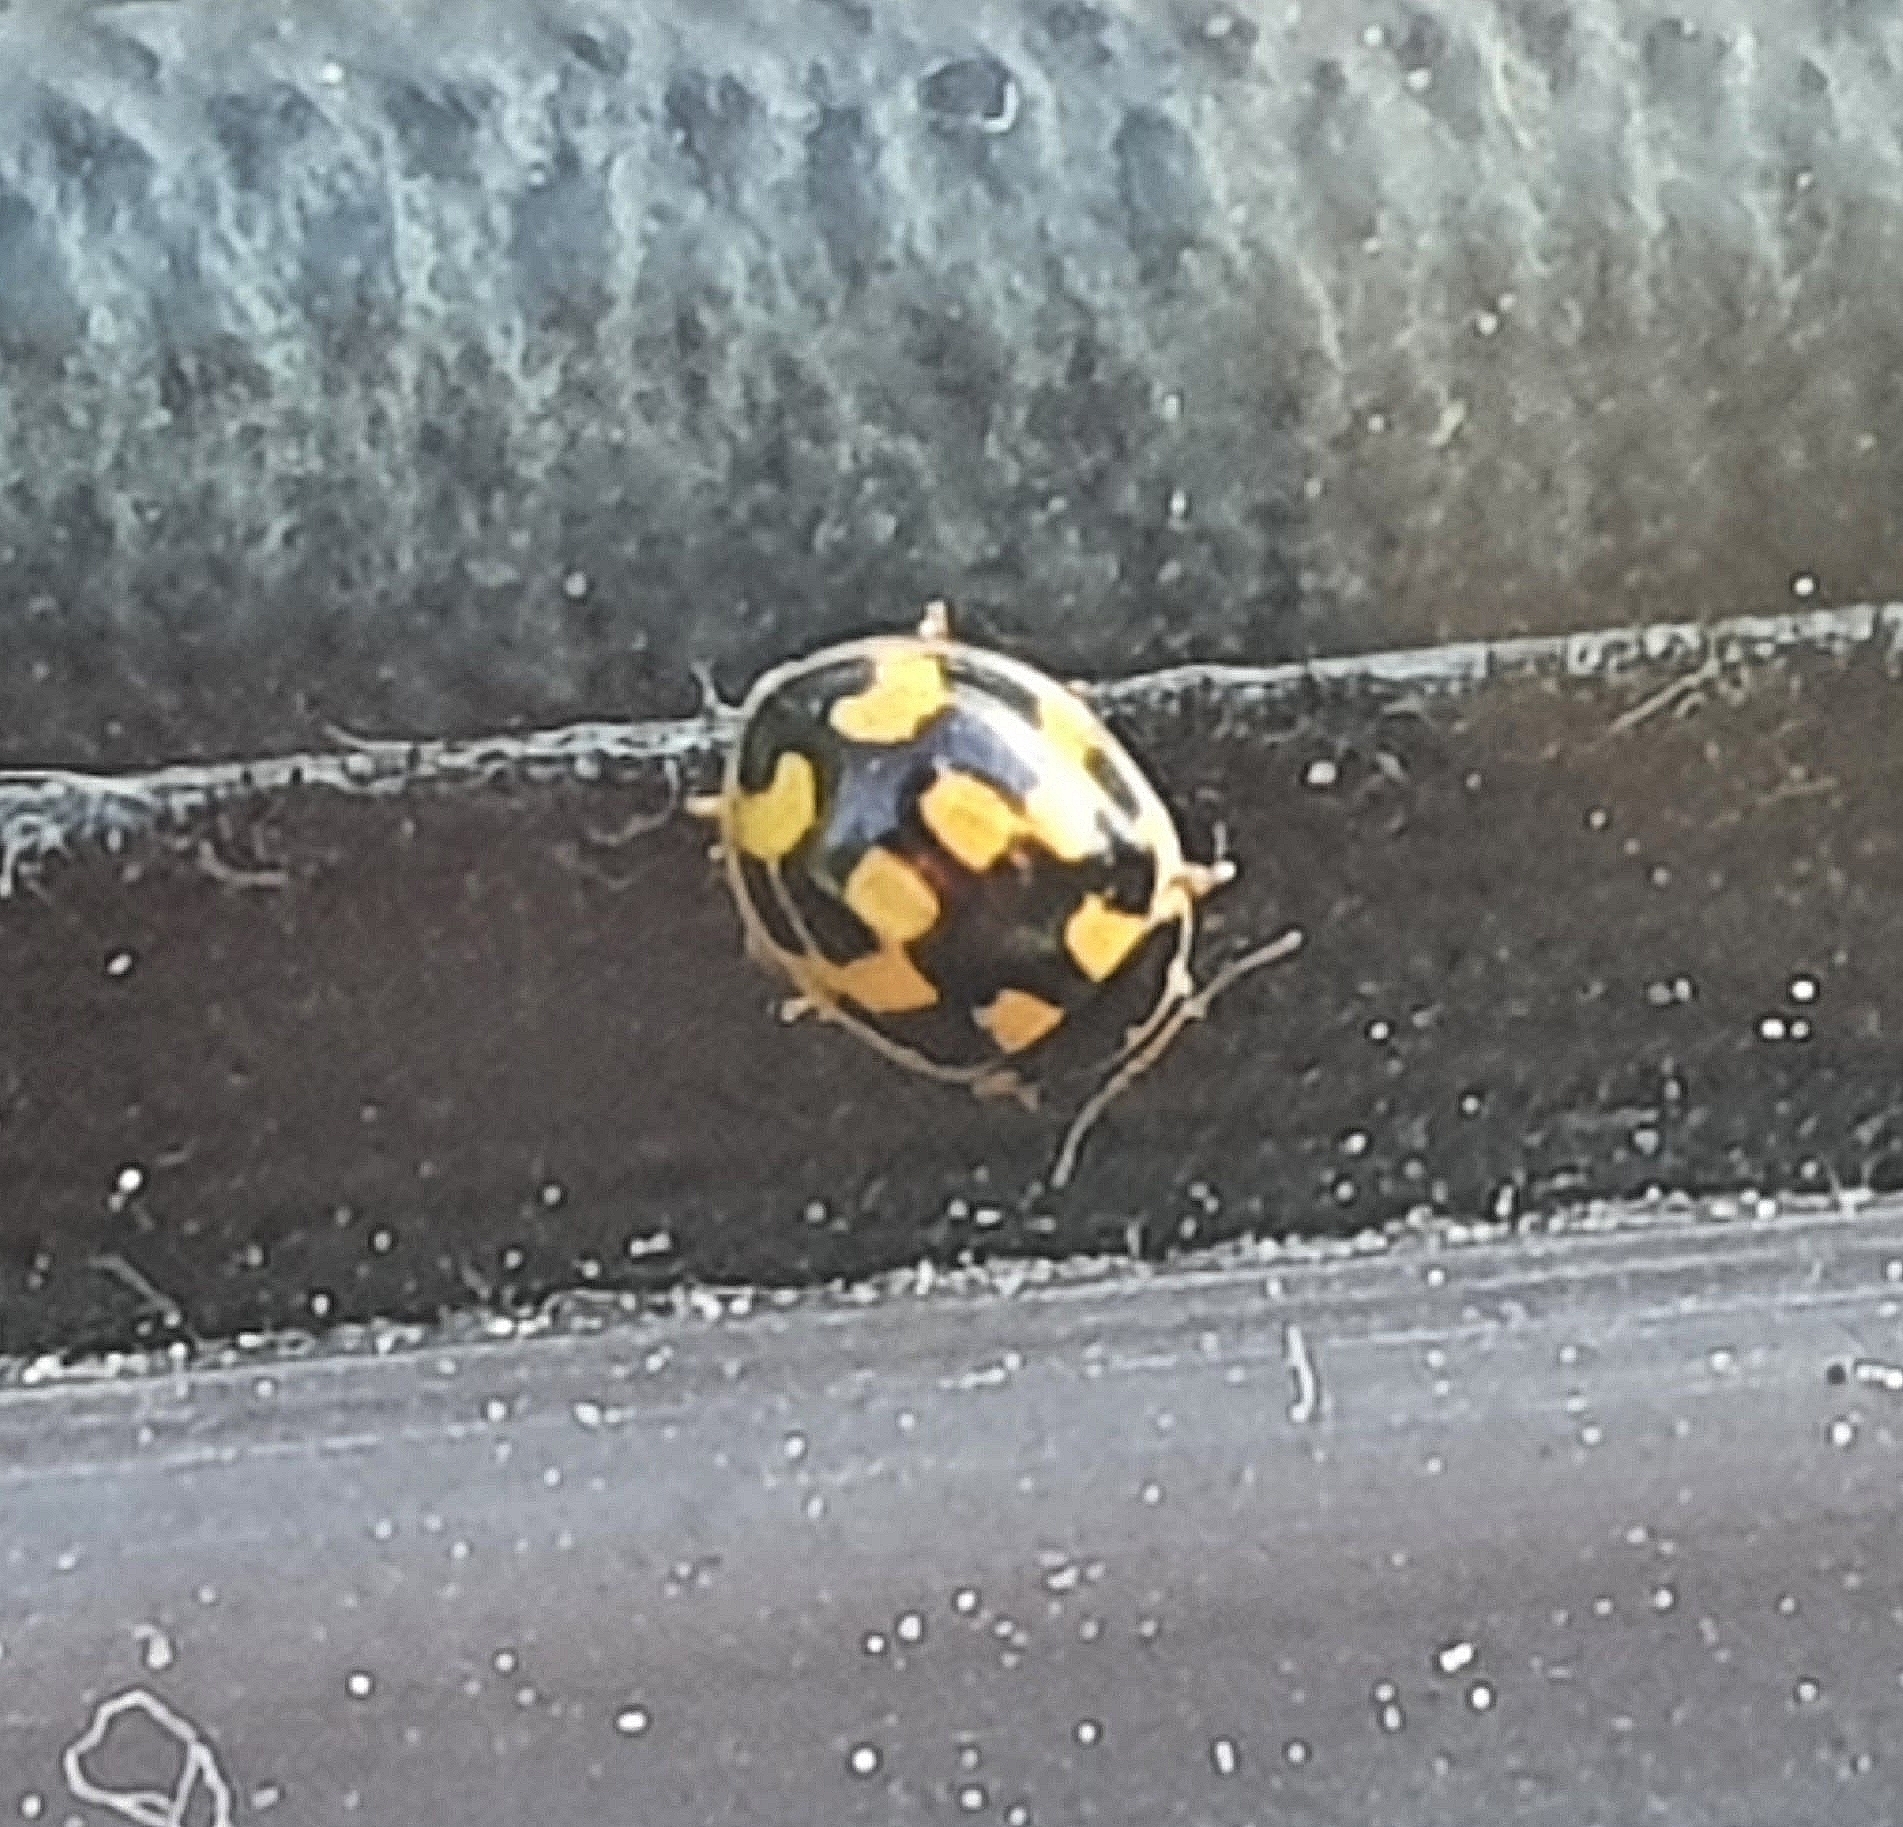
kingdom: Animalia
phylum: Arthropoda
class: Insecta
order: Coleoptera
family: Coccinellidae
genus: Propylaea
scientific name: Propylaea quatuordecimpunctata
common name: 14-spotted ladybird beetle
